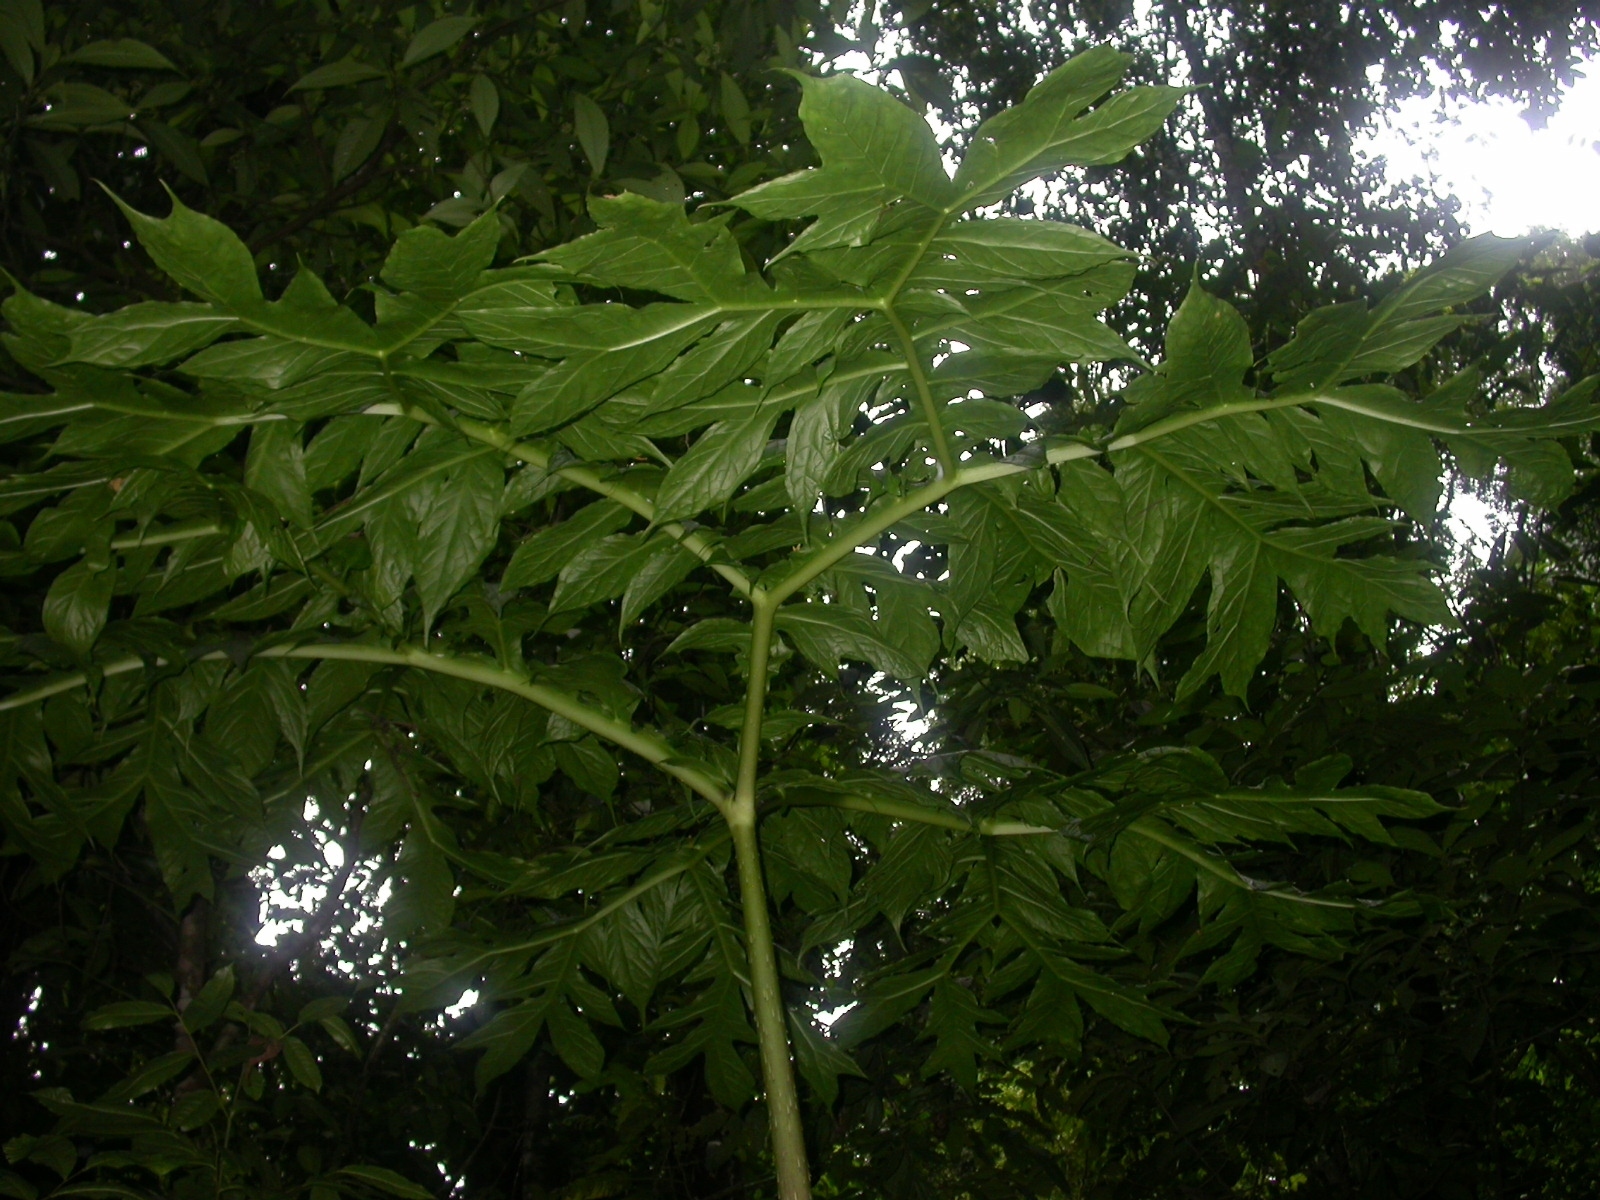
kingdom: Plantae
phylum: Tracheophyta
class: Liliopsida
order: Alismatales
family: Araceae
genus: Dracontium
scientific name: Dracontium pittieri
